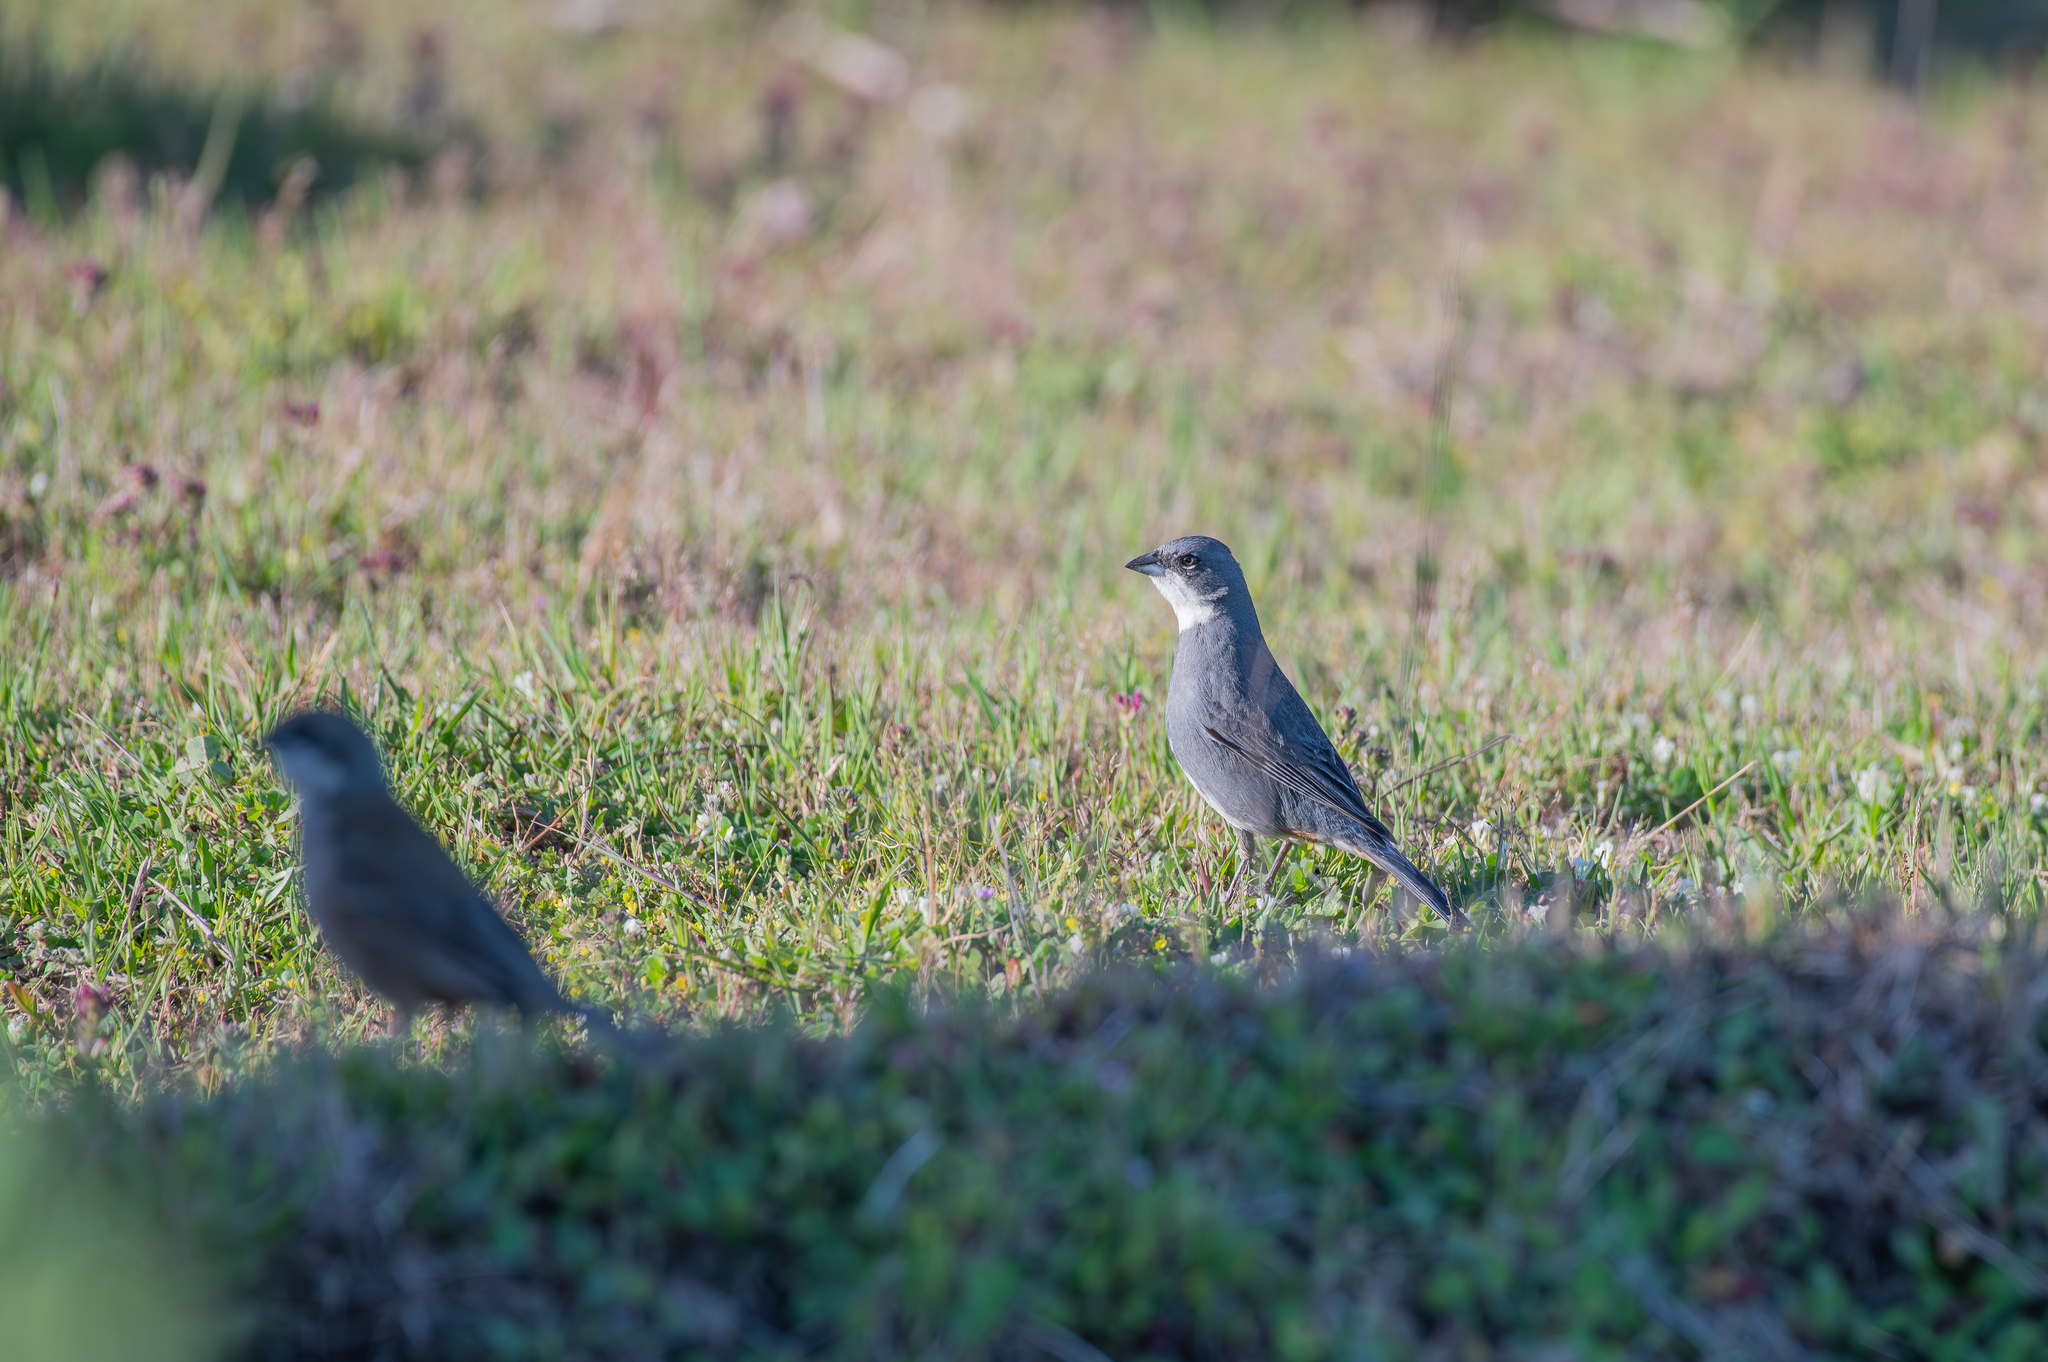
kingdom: Animalia
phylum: Chordata
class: Aves
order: Passeriformes
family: Thraupidae
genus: Diuca
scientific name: Diuca diuca
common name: Common diuca finch
